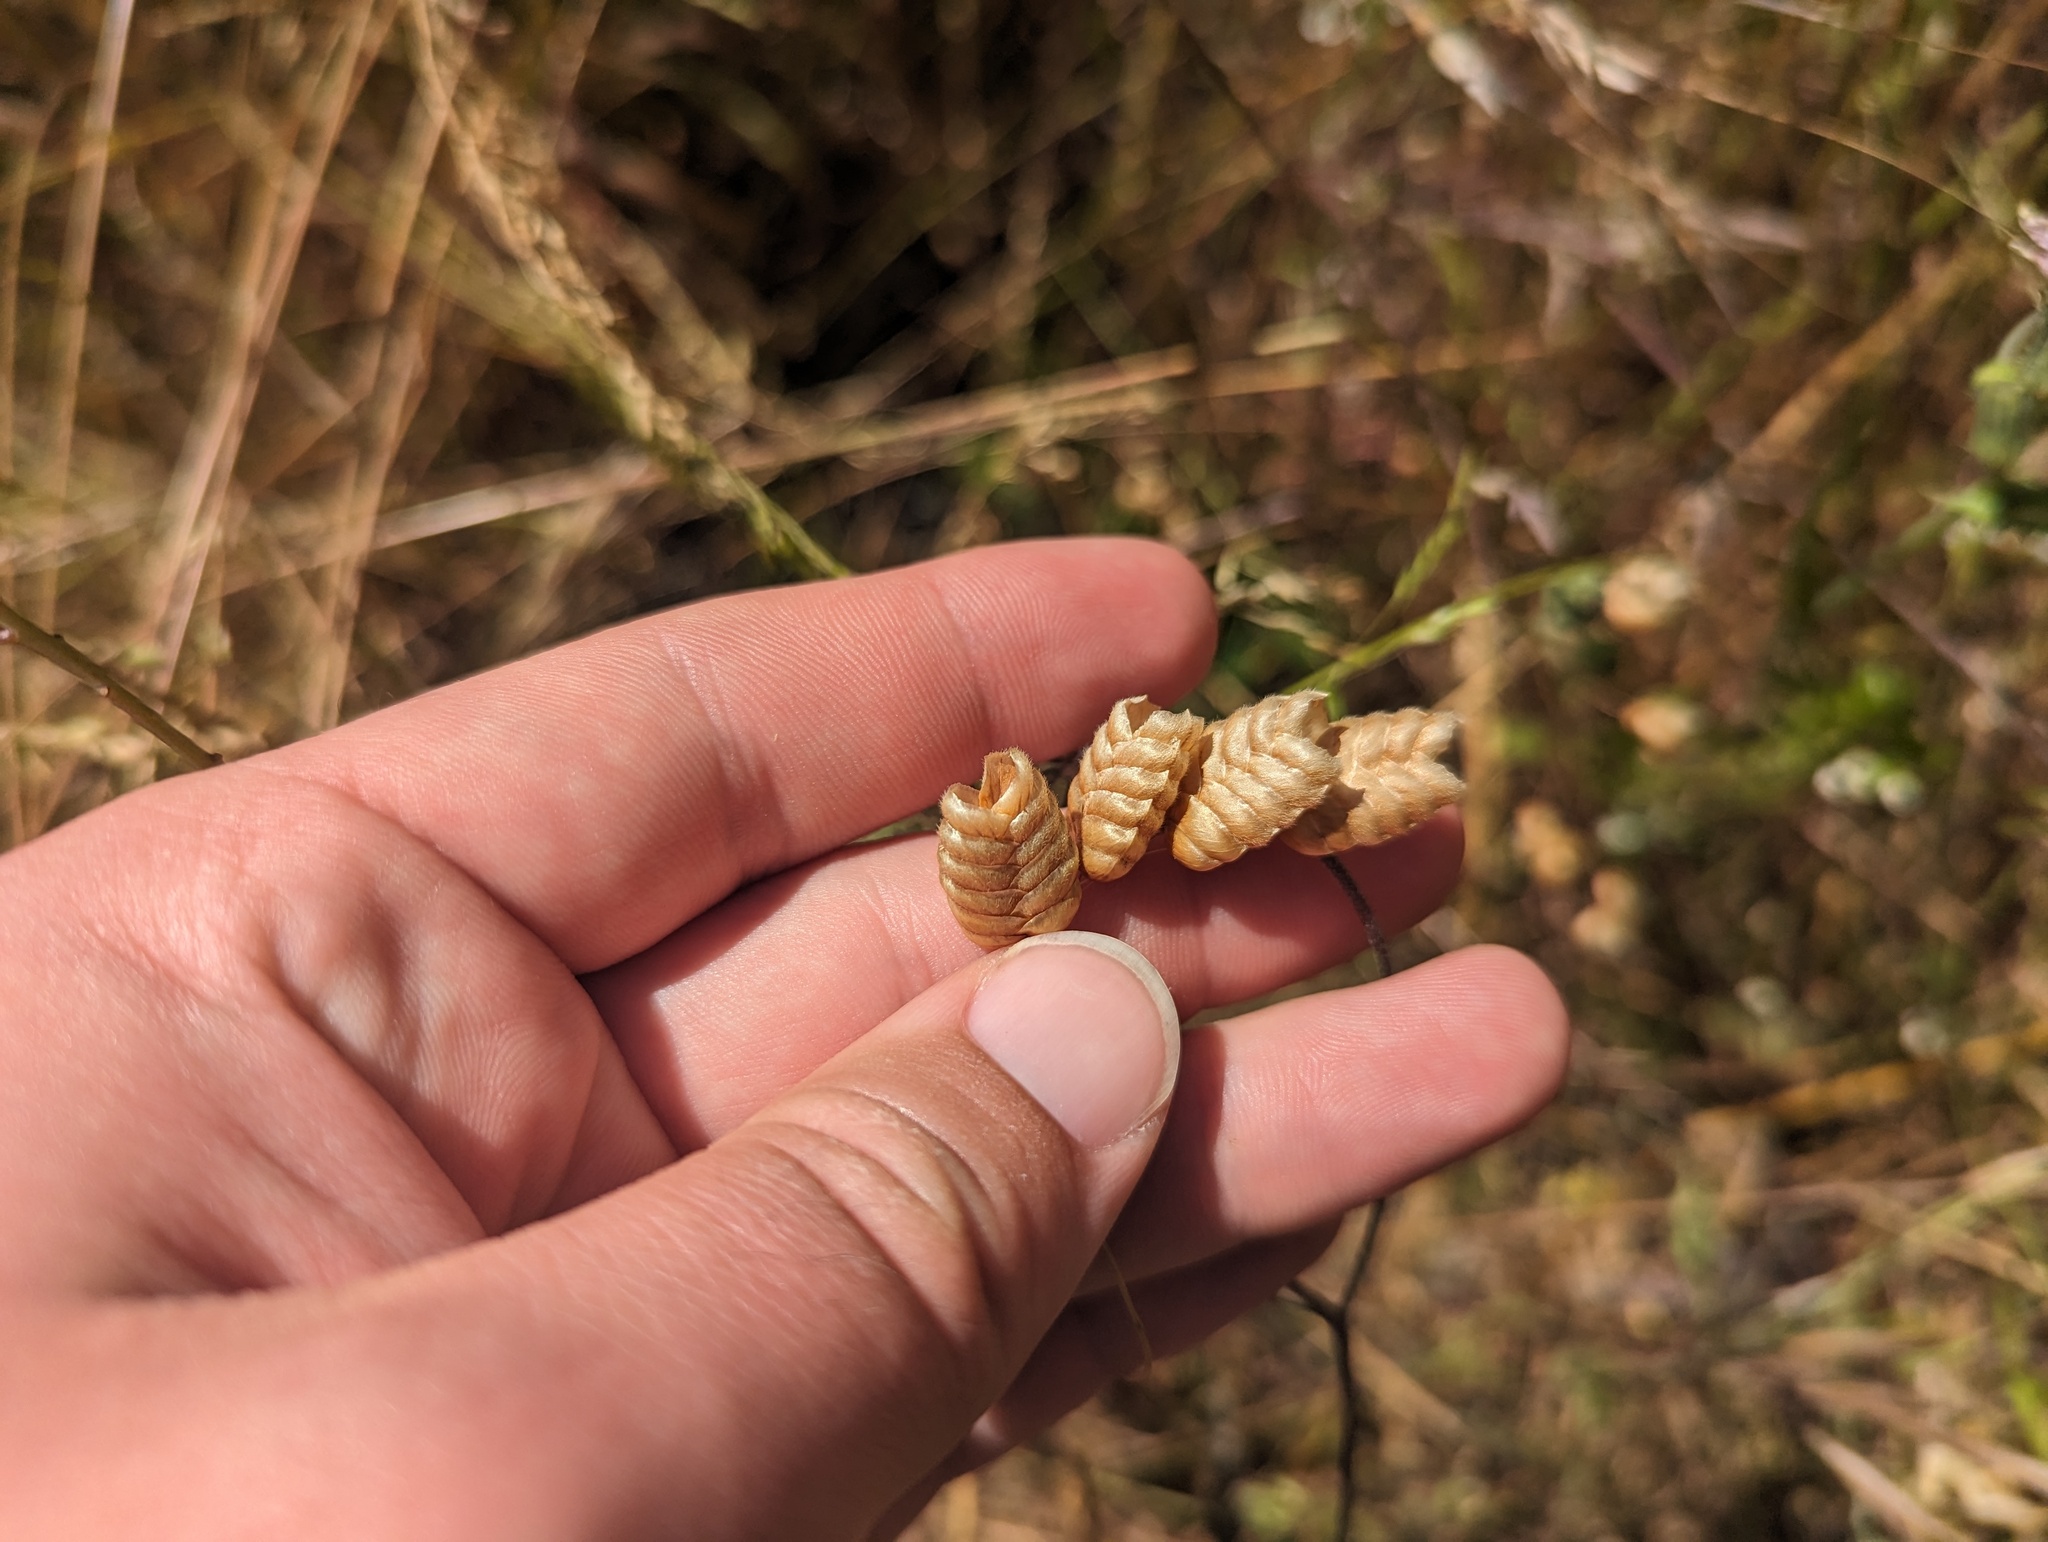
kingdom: Plantae
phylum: Tracheophyta
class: Liliopsida
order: Poales
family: Poaceae
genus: Briza
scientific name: Briza maxima
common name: Big quakinggrass
